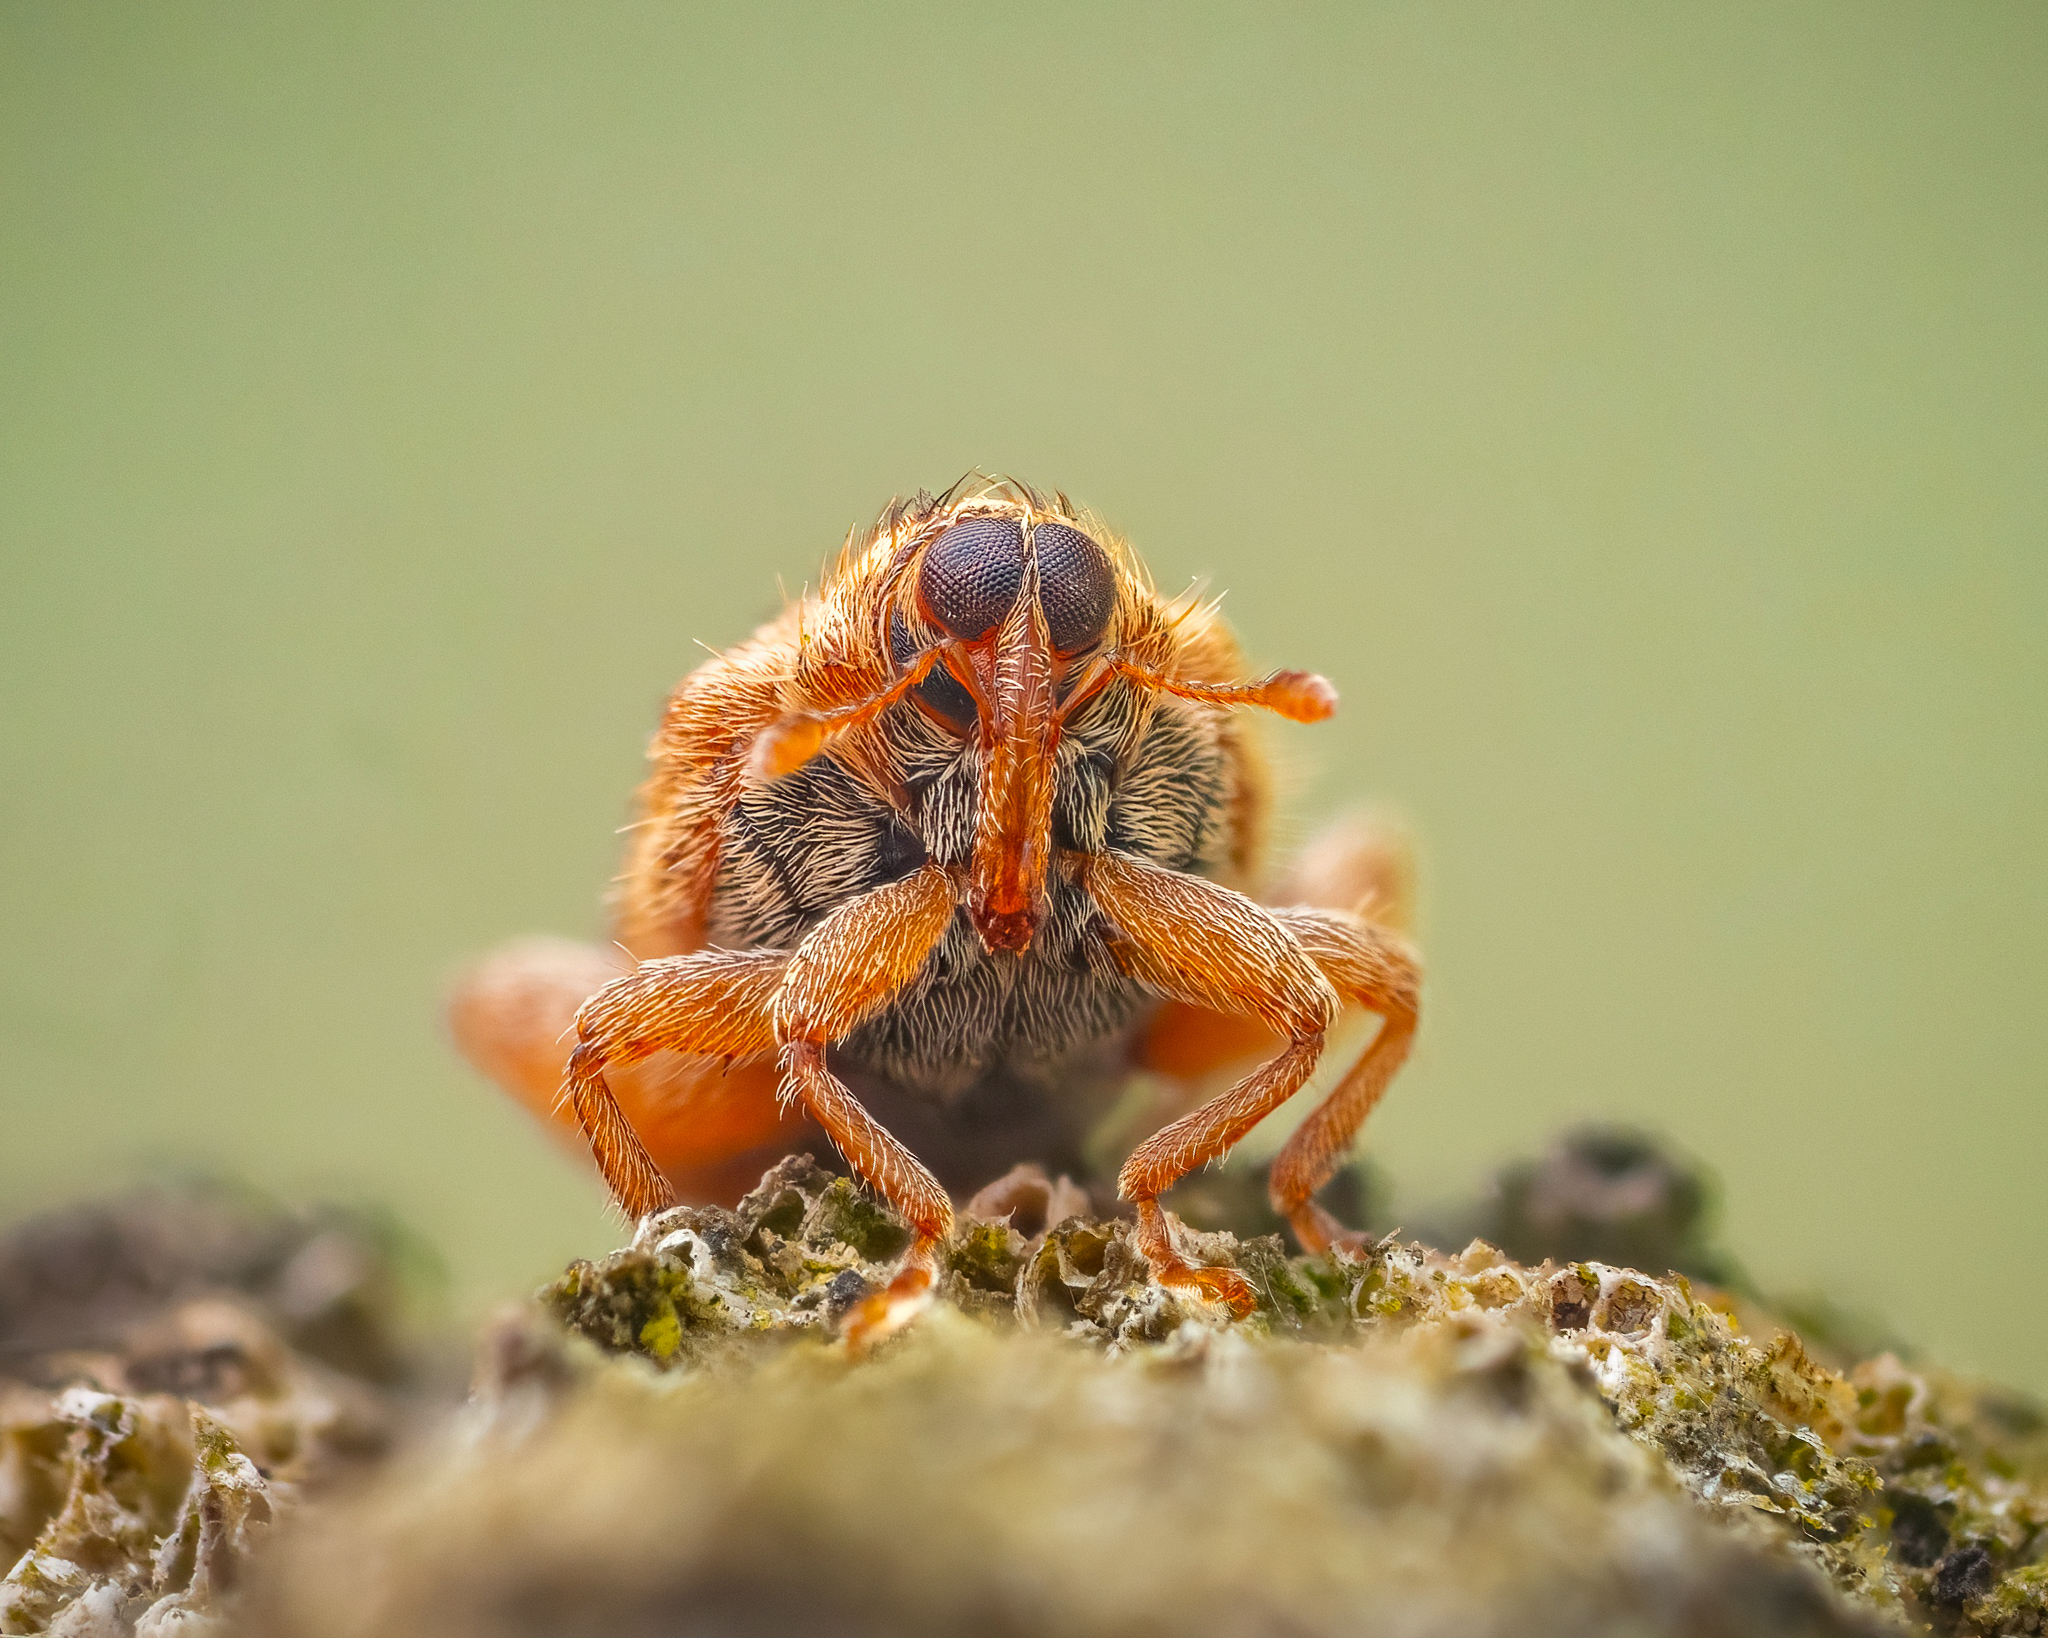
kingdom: Animalia
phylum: Arthropoda
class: Insecta
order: Coleoptera
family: Curculionidae
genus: Orchestes
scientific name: Orchestes quercus
